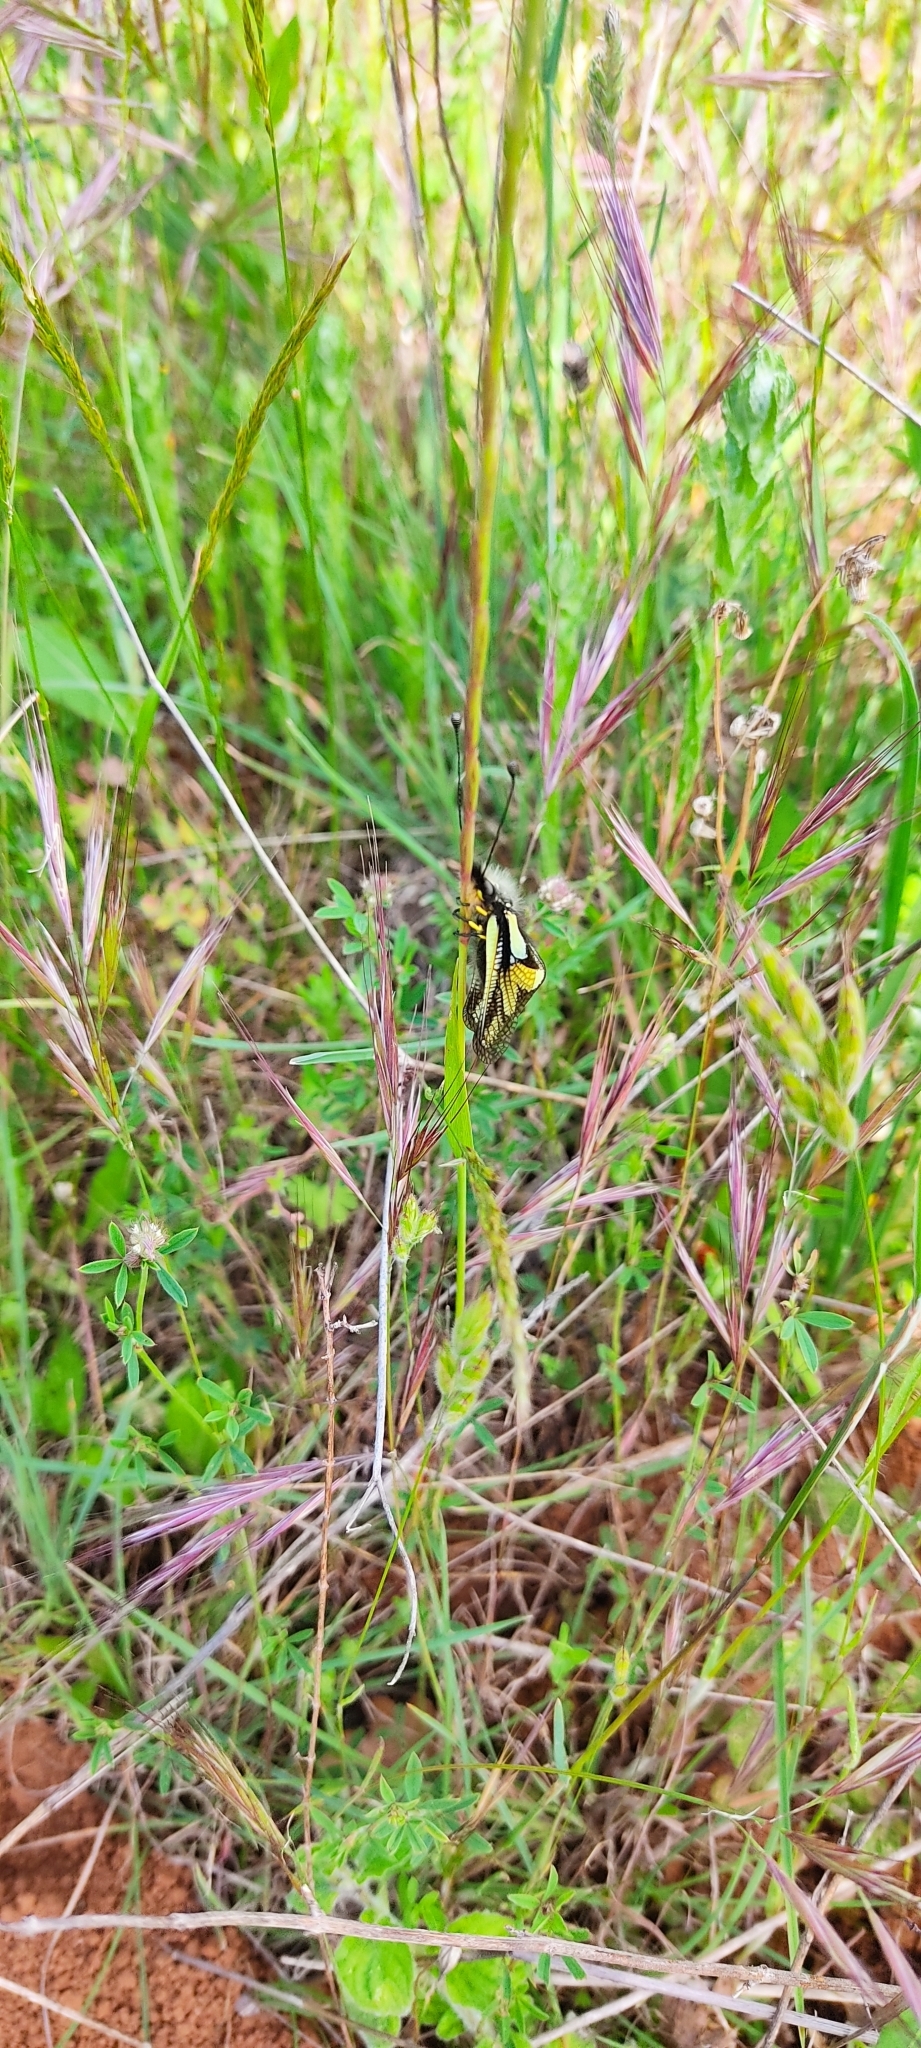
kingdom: Animalia
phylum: Arthropoda
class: Insecta
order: Neuroptera
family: Ascalaphidae
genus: Libelloides
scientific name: Libelloides coccajus
